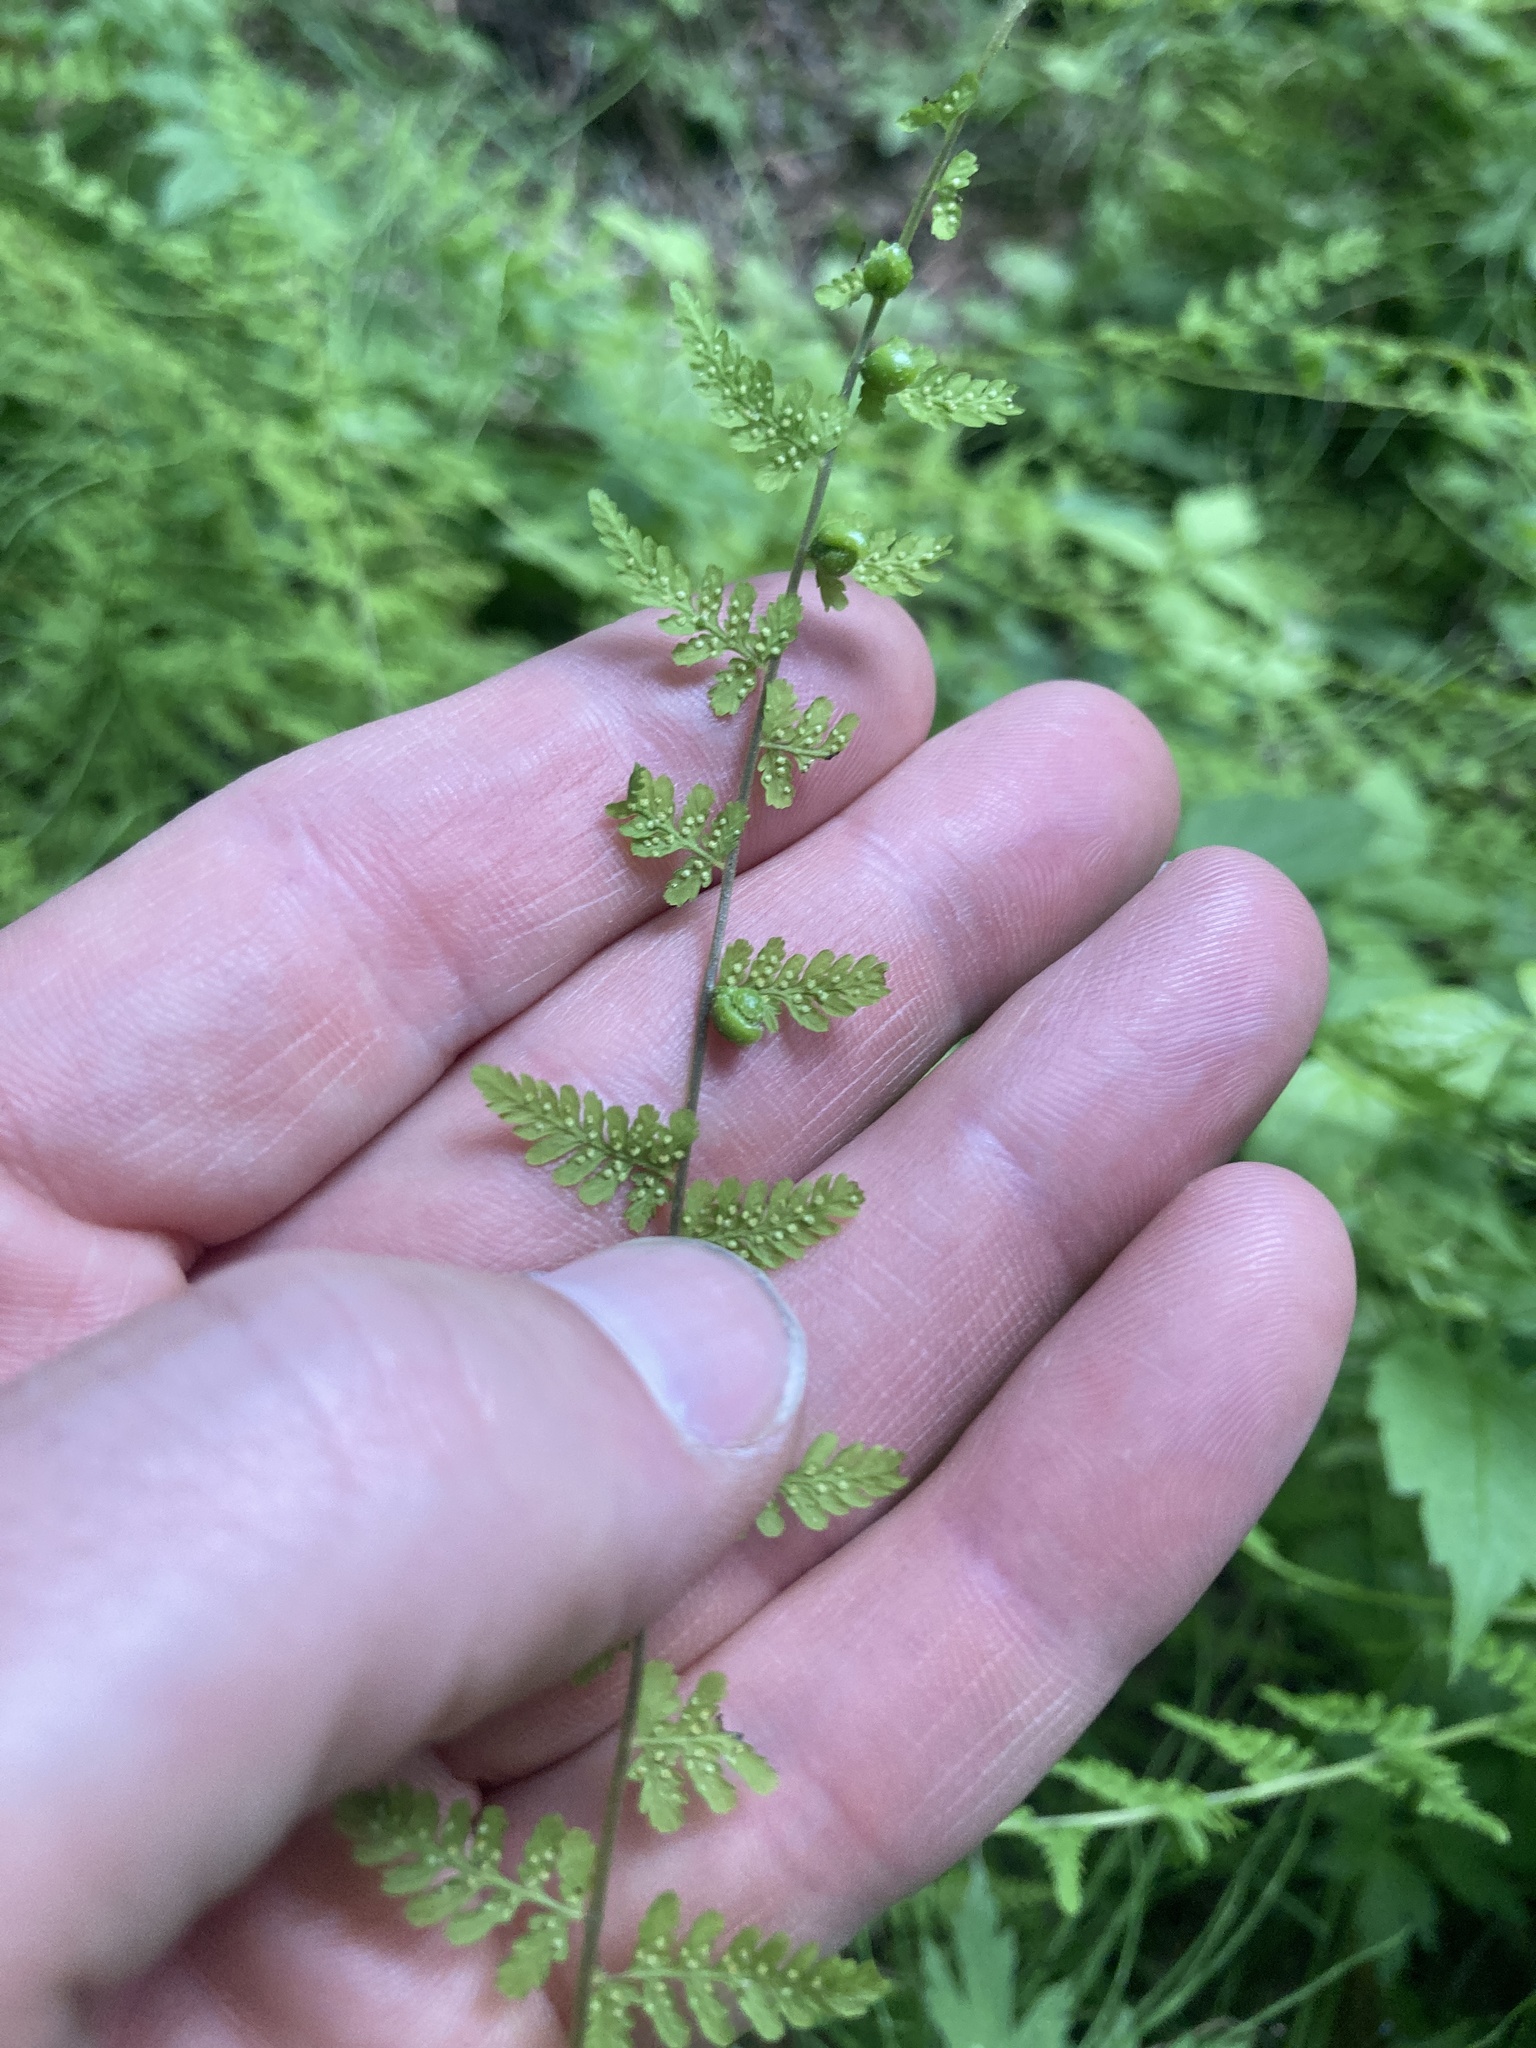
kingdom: Plantae
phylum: Tracheophyta
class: Polypodiopsida
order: Polypodiales
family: Cystopteridaceae
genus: Cystopteris
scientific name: Cystopteris bulbifera
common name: Bulblet bladder fern
